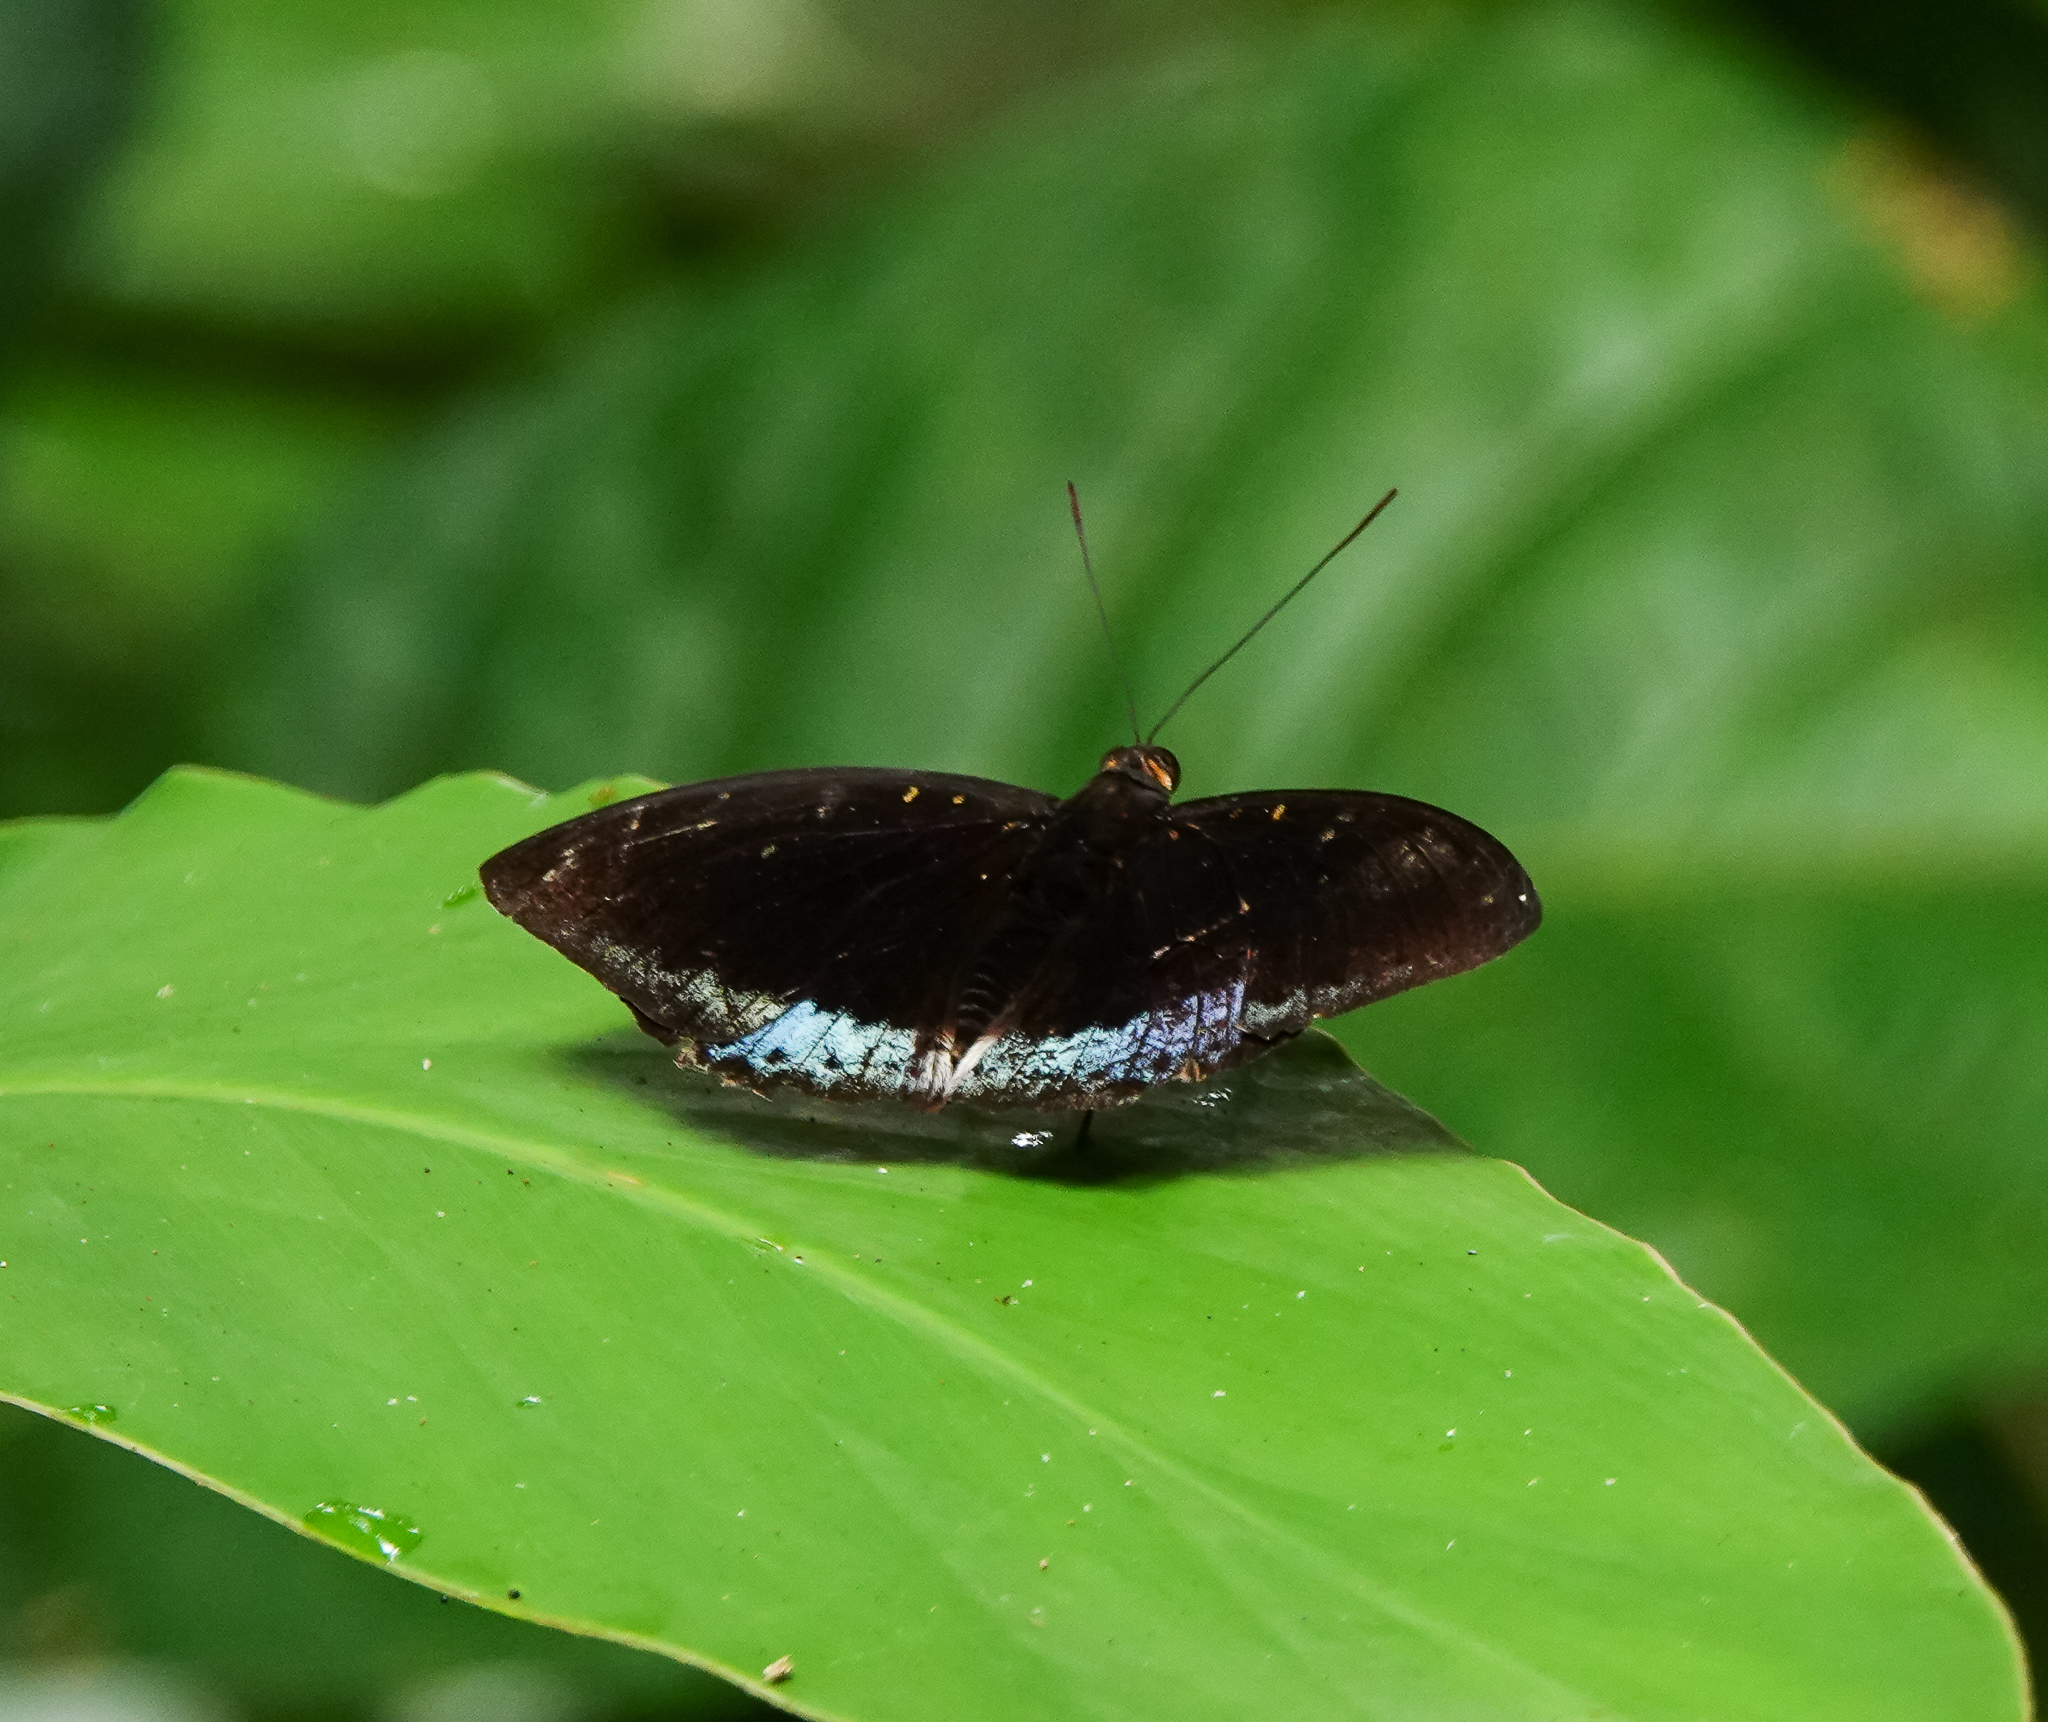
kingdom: Animalia
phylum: Arthropoda
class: Insecta
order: Lepidoptera
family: Nymphalidae
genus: Lexias
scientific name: Lexias dirtea
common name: Black-tipped archduke
